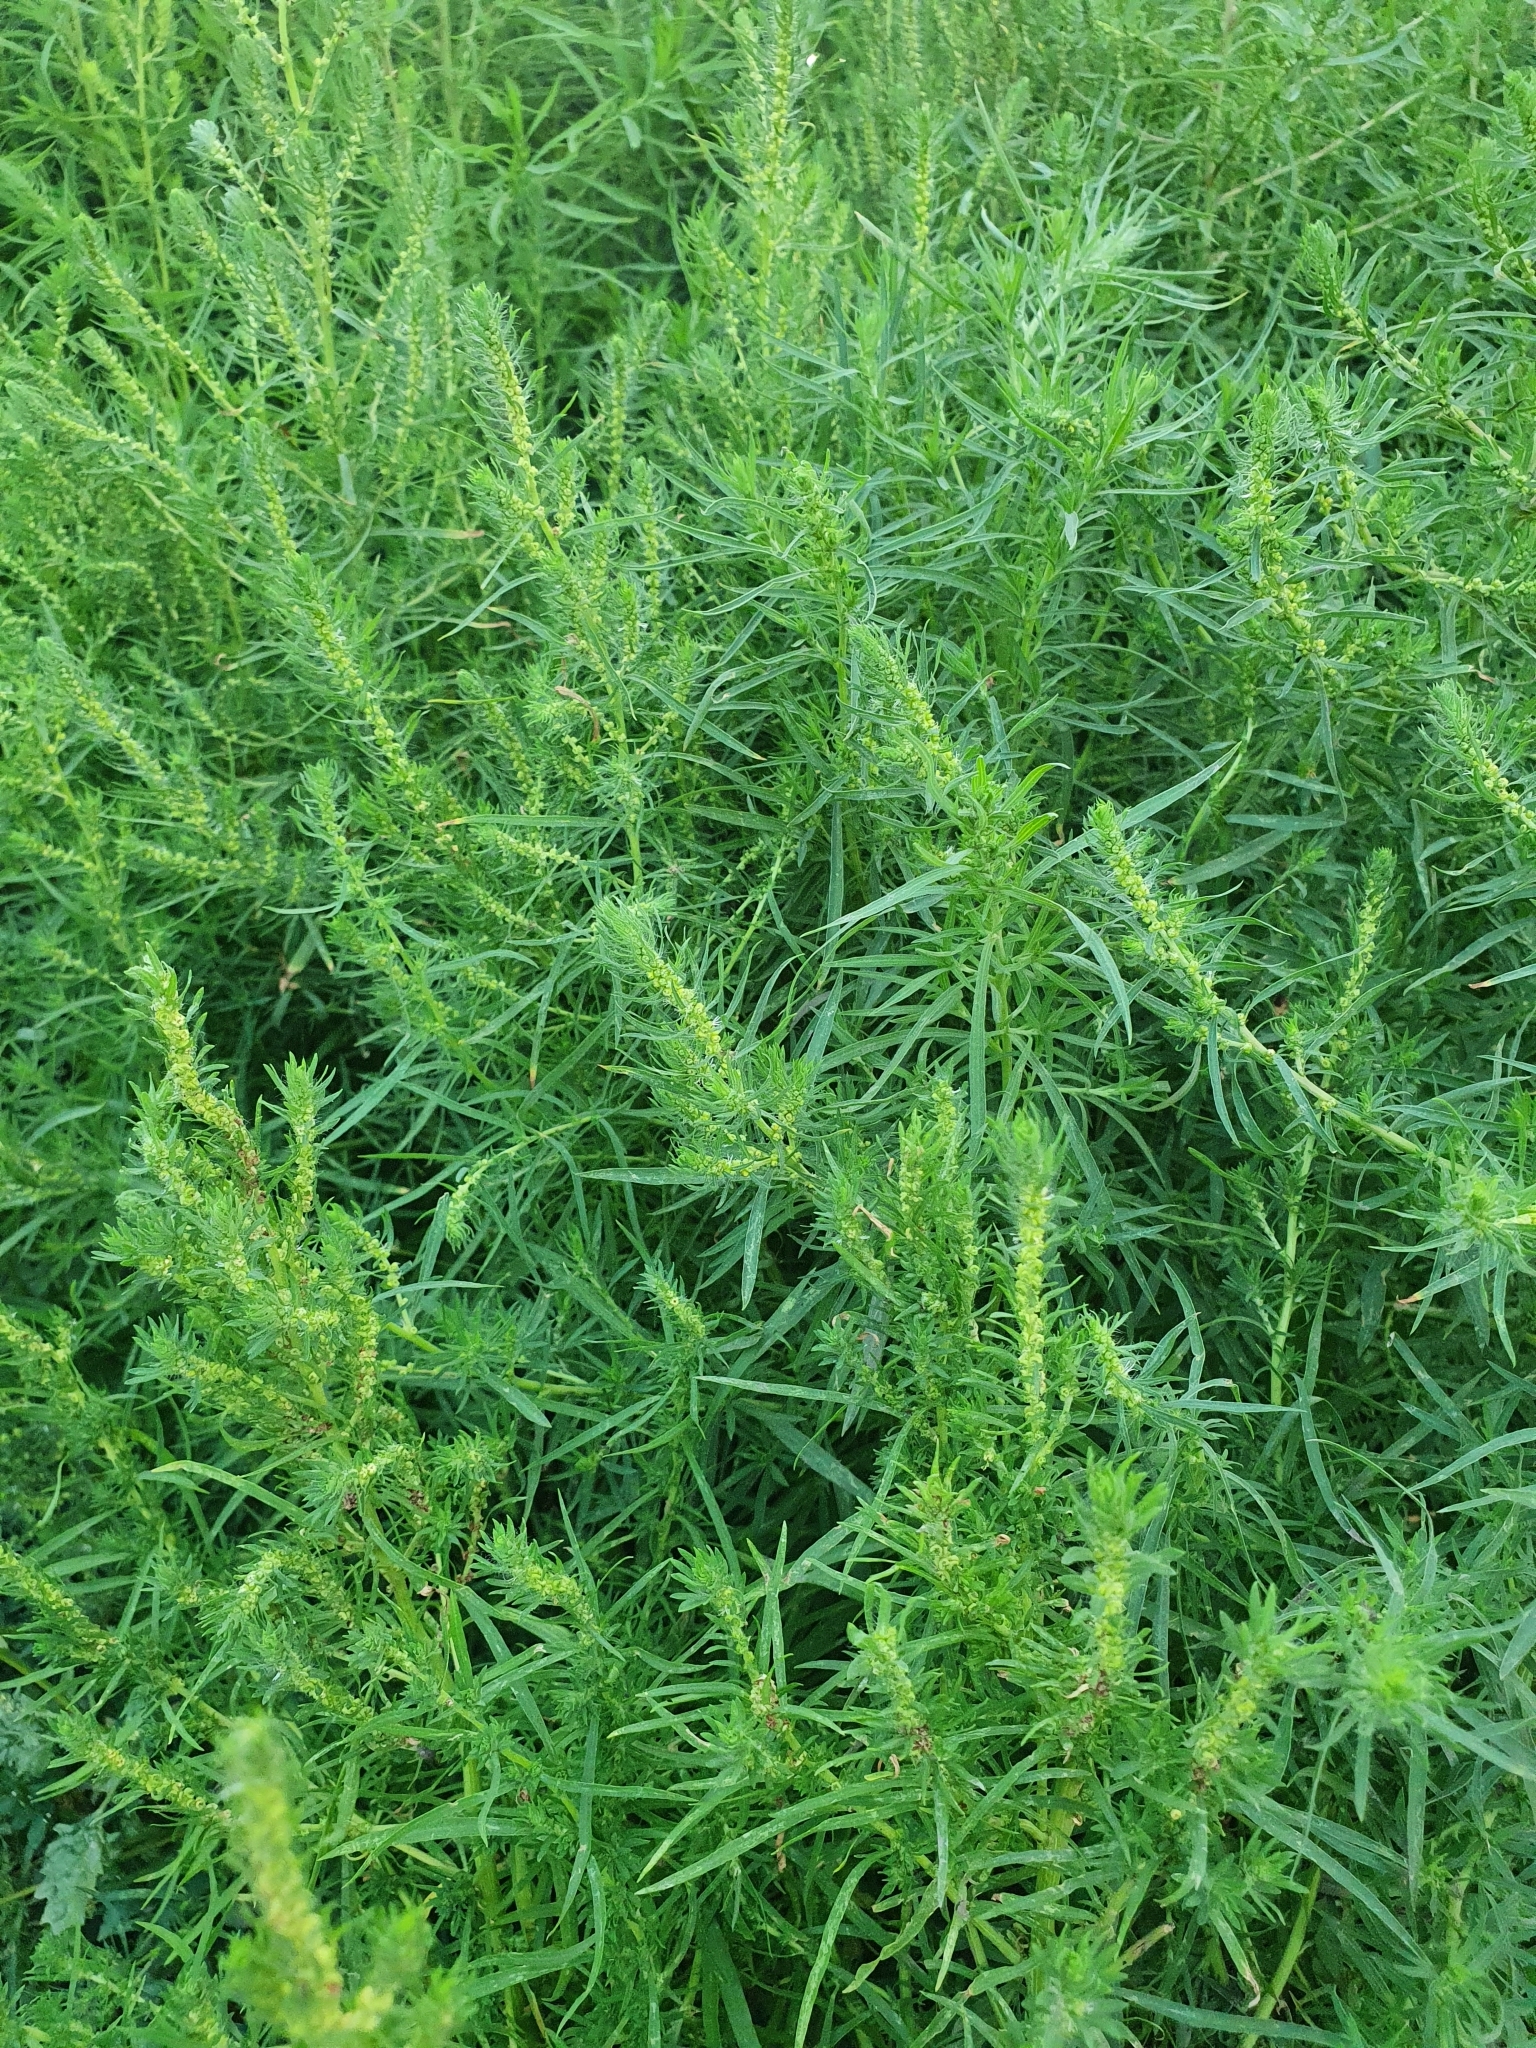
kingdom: Plantae
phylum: Tracheophyta
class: Magnoliopsida
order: Caryophyllales
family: Amaranthaceae
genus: Bassia
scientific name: Bassia scoparia
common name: Belvedere
